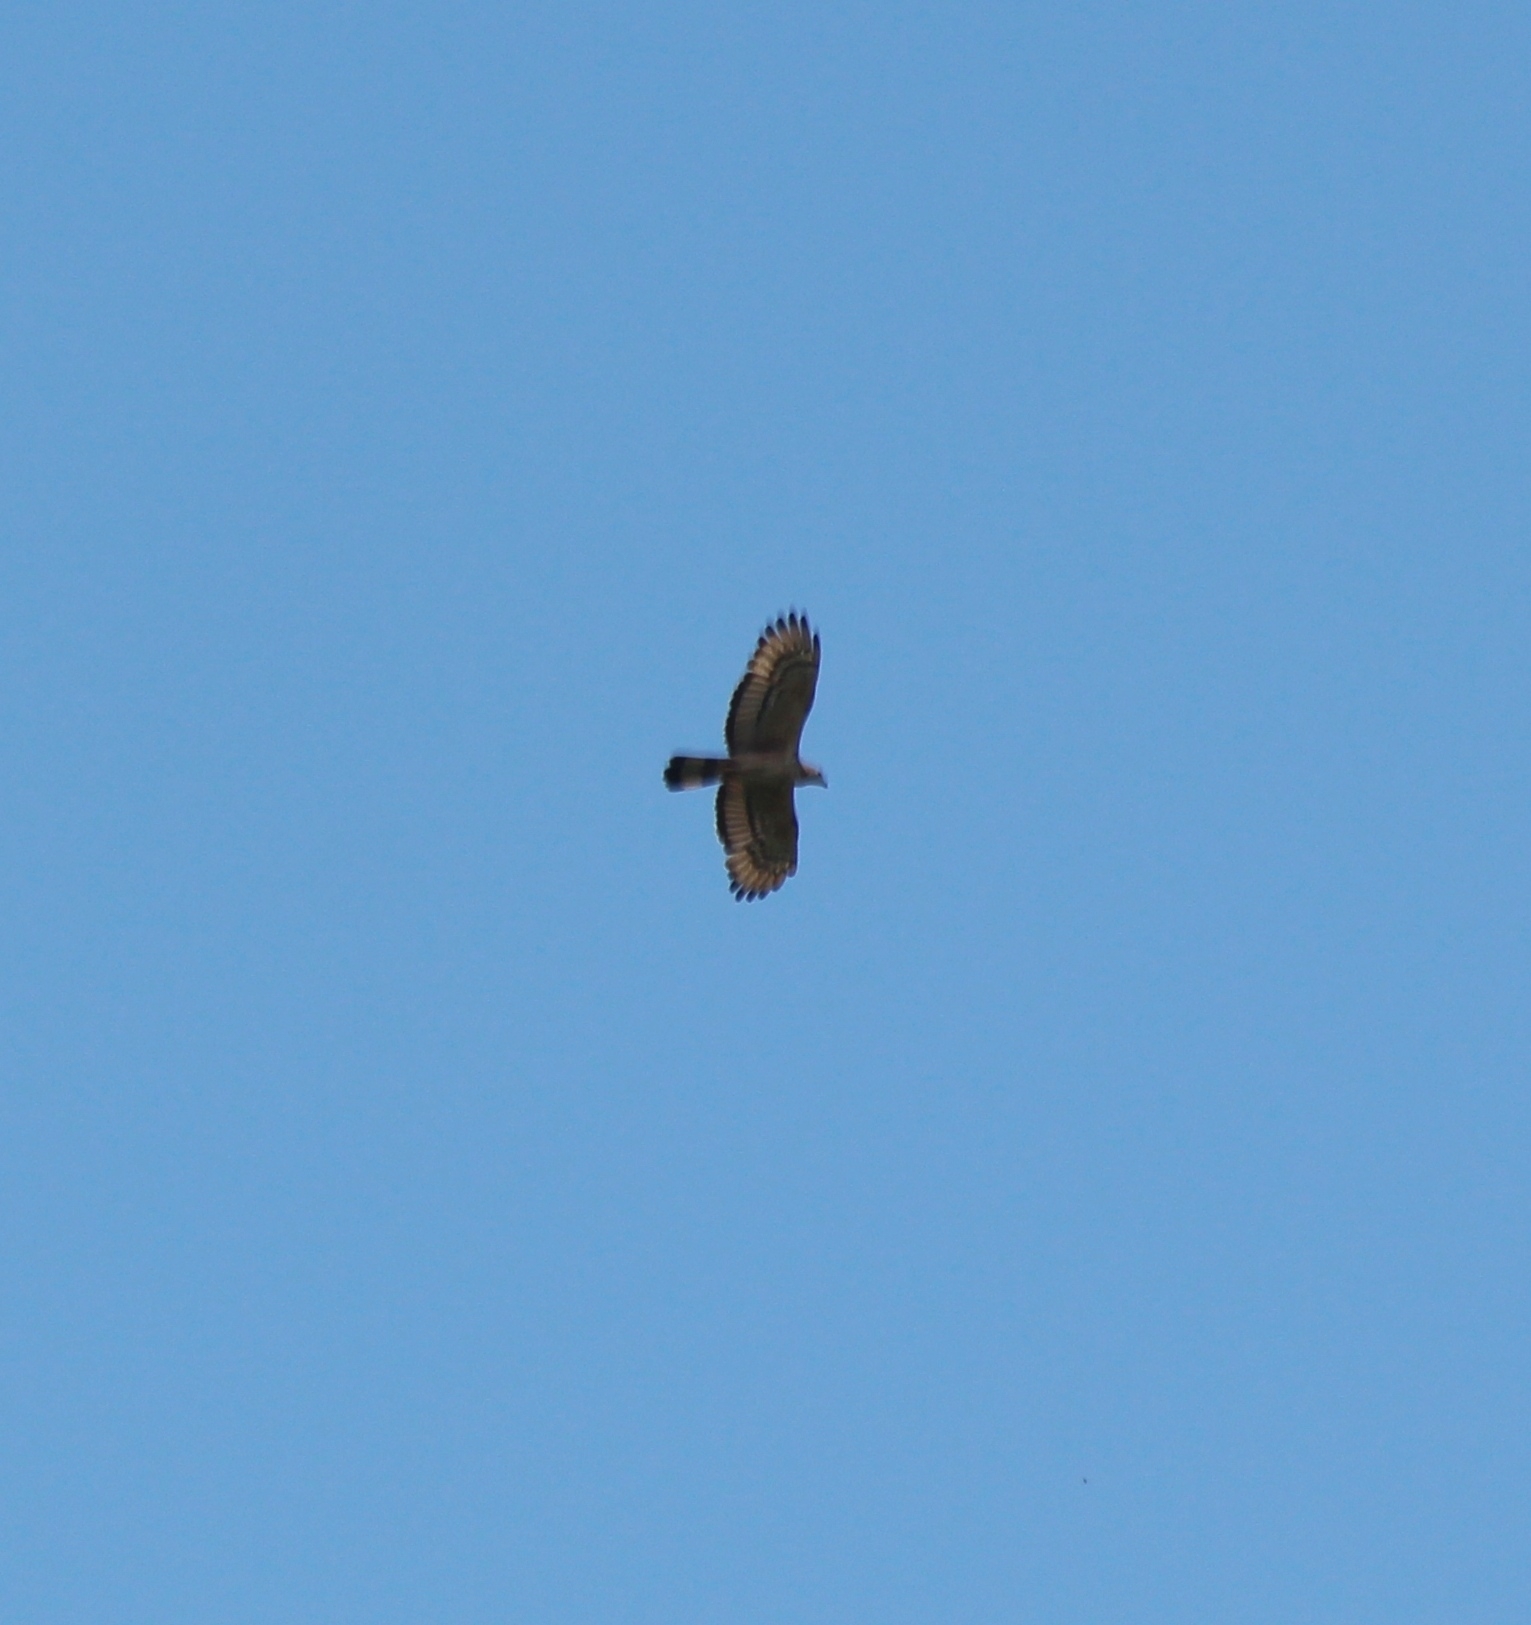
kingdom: Animalia
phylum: Chordata
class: Aves
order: Accipitriformes
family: Accipitridae
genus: Pernis
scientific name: Pernis ptilorhynchus
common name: Crested honey buzzard
